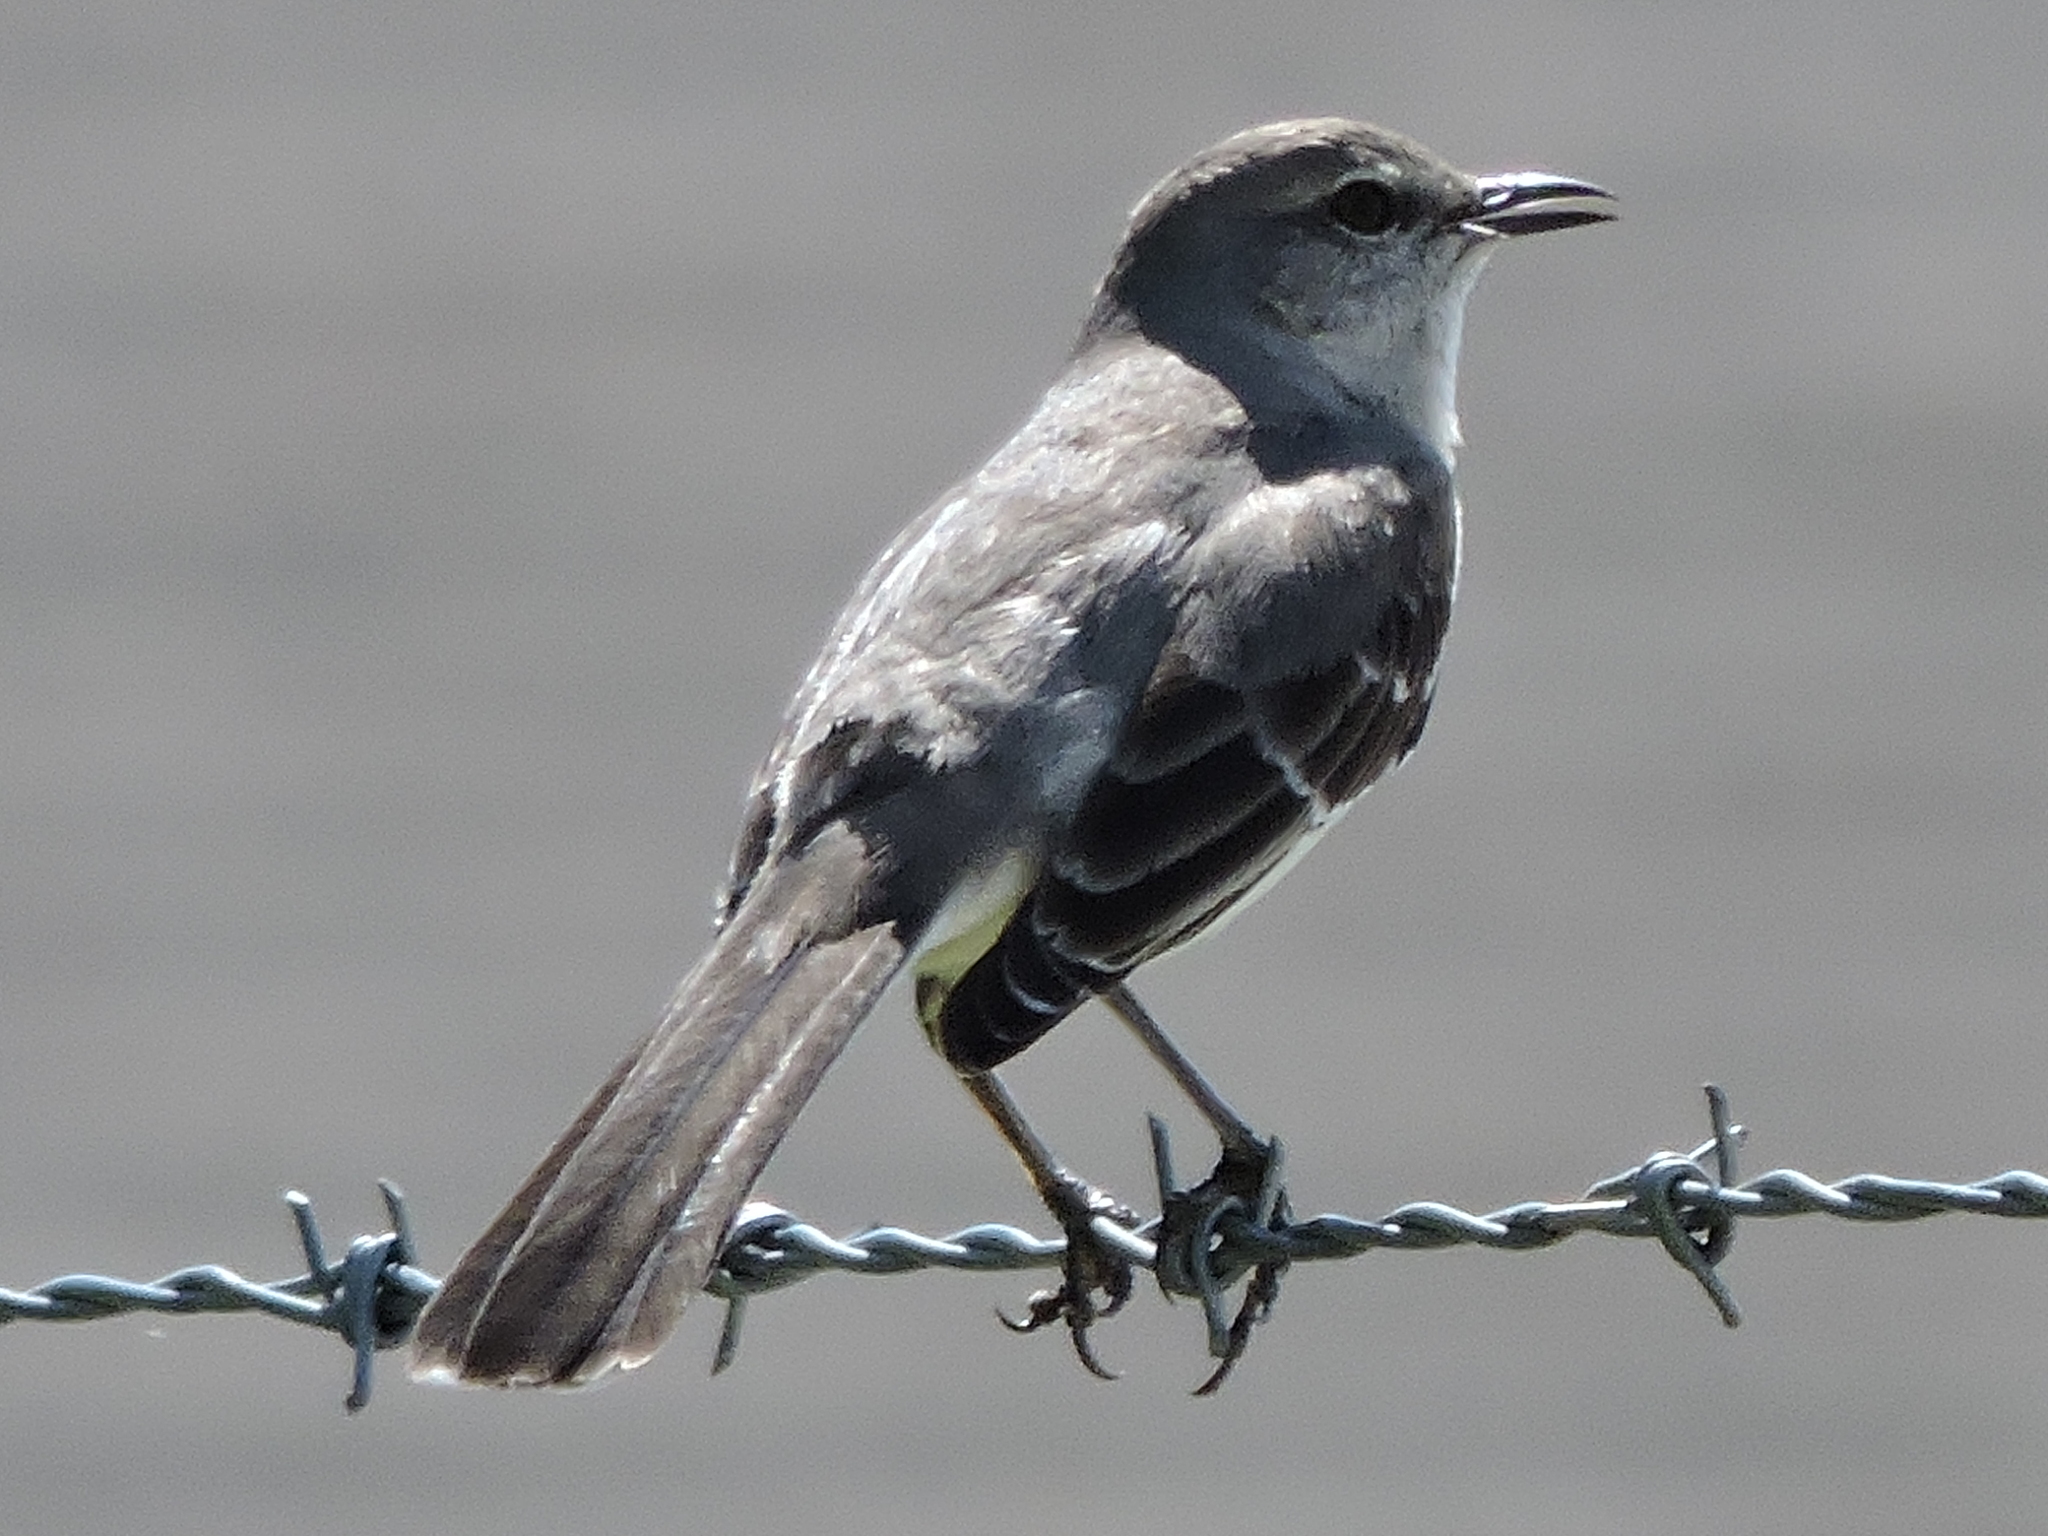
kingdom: Animalia
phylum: Chordata
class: Aves
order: Passeriformes
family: Mimidae
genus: Mimus
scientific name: Mimus polyglottos
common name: Northern mockingbird
